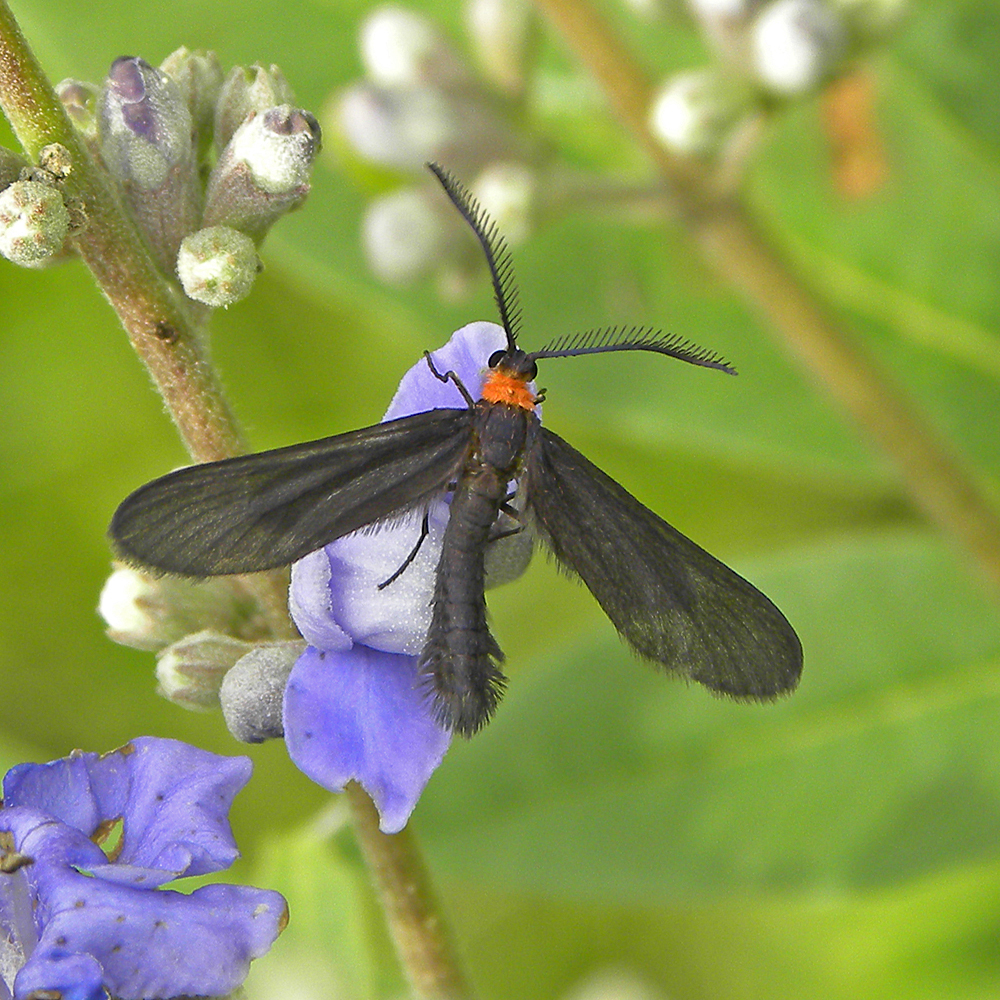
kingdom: Animalia
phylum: Arthropoda
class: Insecta
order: Lepidoptera
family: Zygaenidae
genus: Harrisina
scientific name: Harrisina americana
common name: Grapeleaf skeletonizer moth
